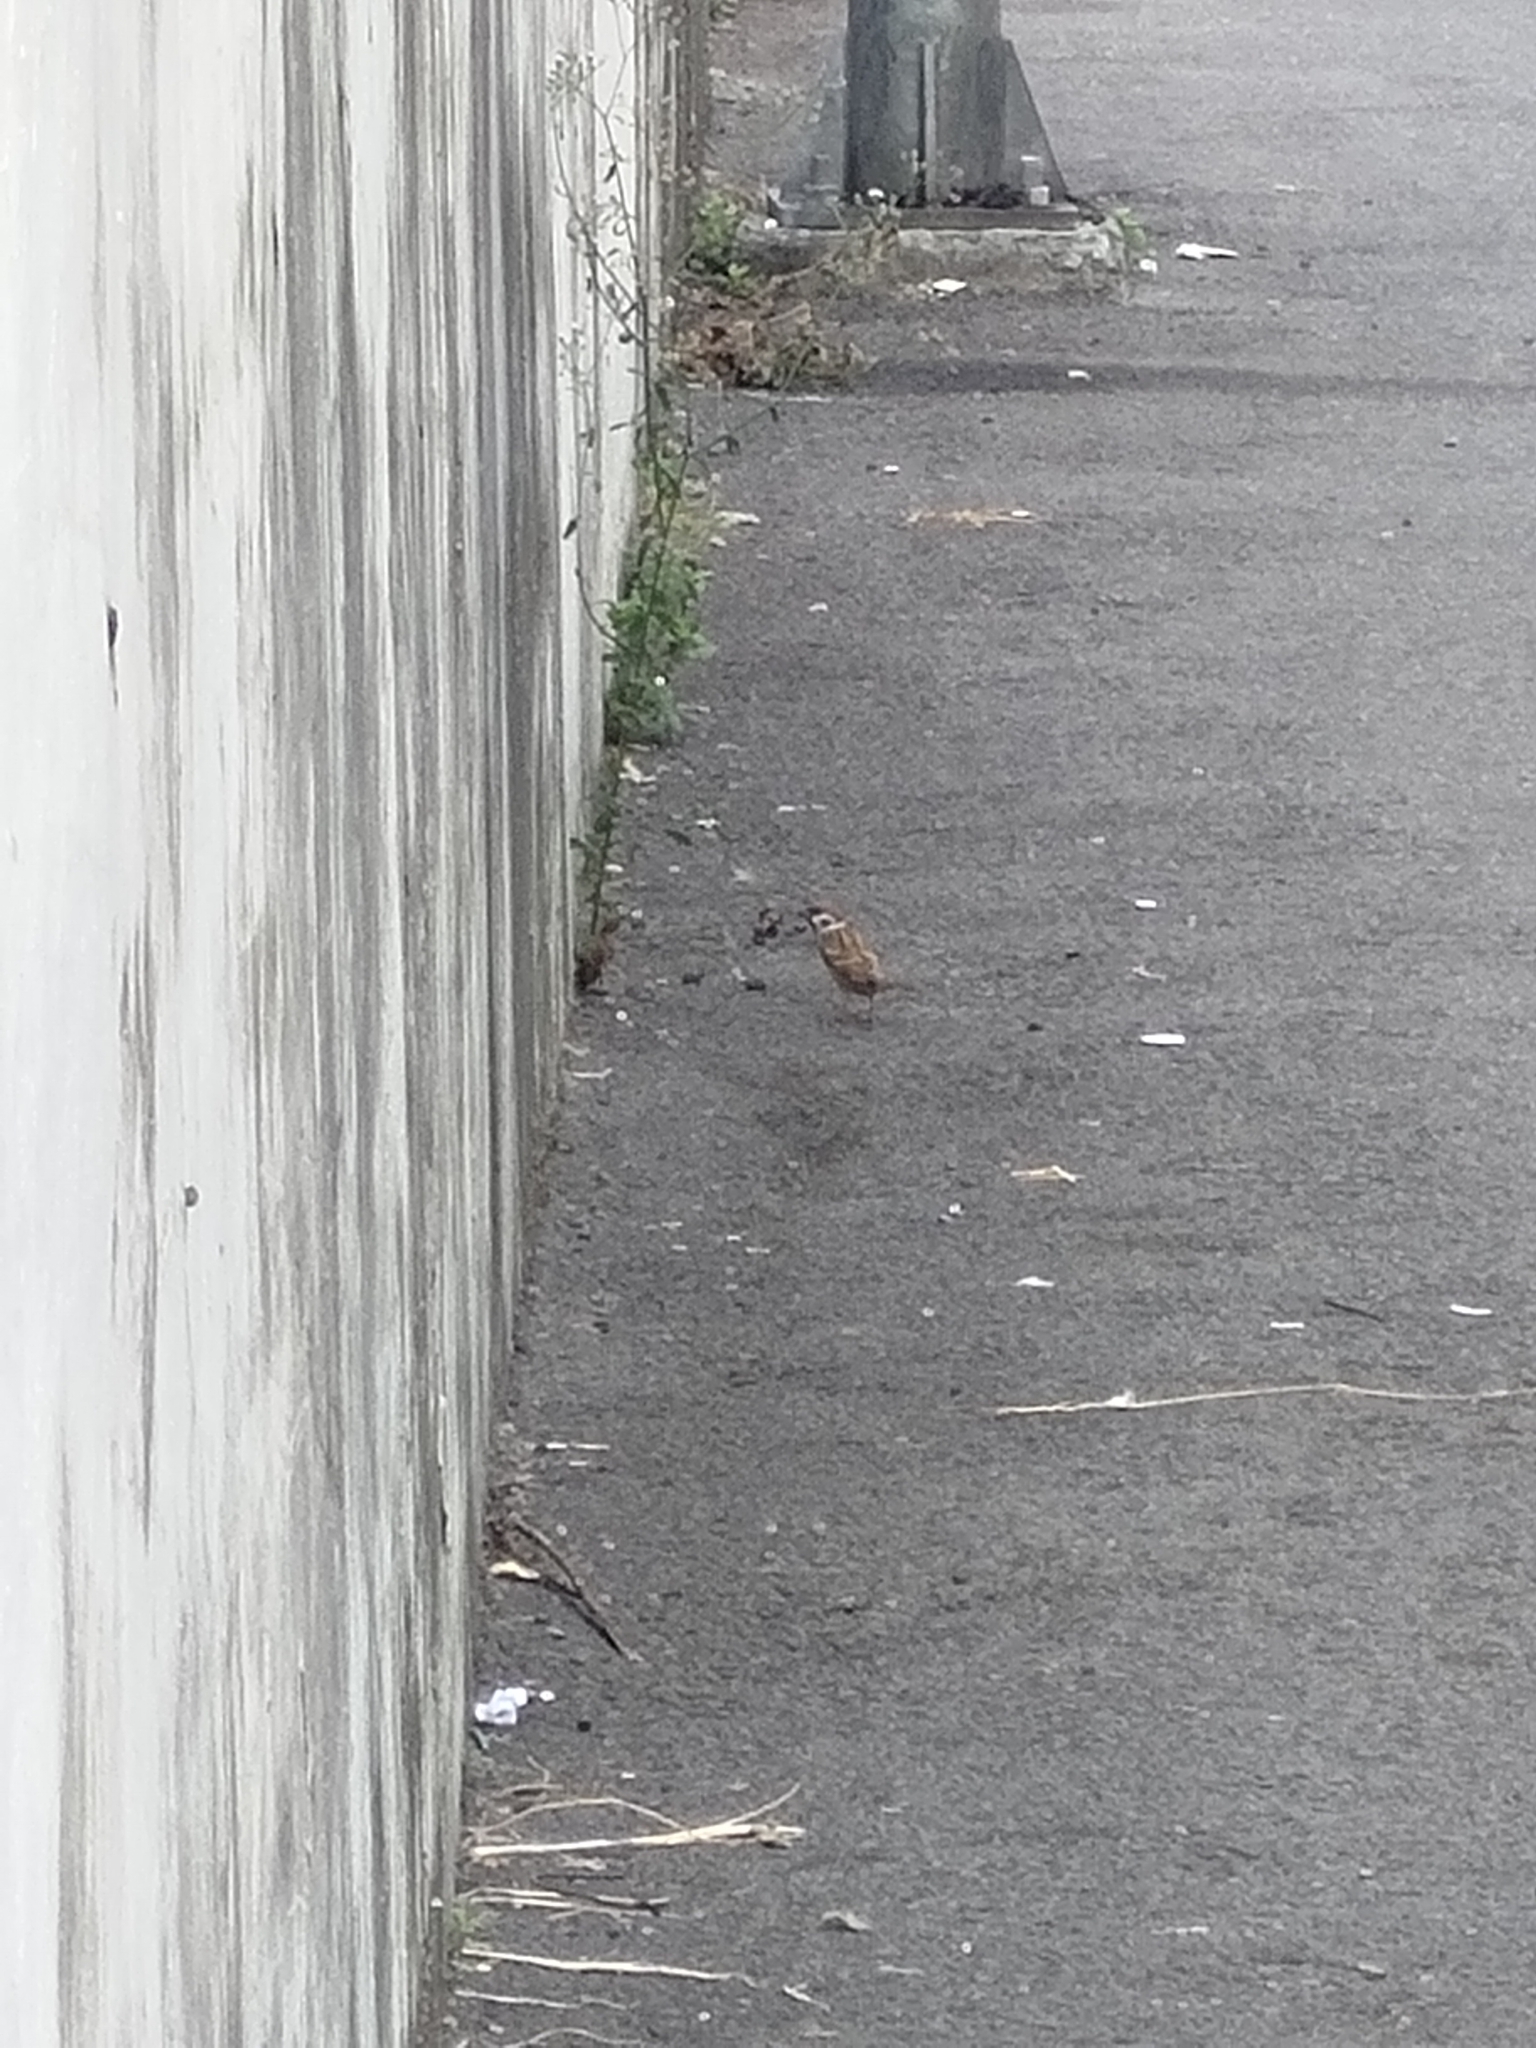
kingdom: Animalia
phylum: Chordata
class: Aves
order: Passeriformes
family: Passeridae
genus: Passer
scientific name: Passer montanus
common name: Eurasian tree sparrow
